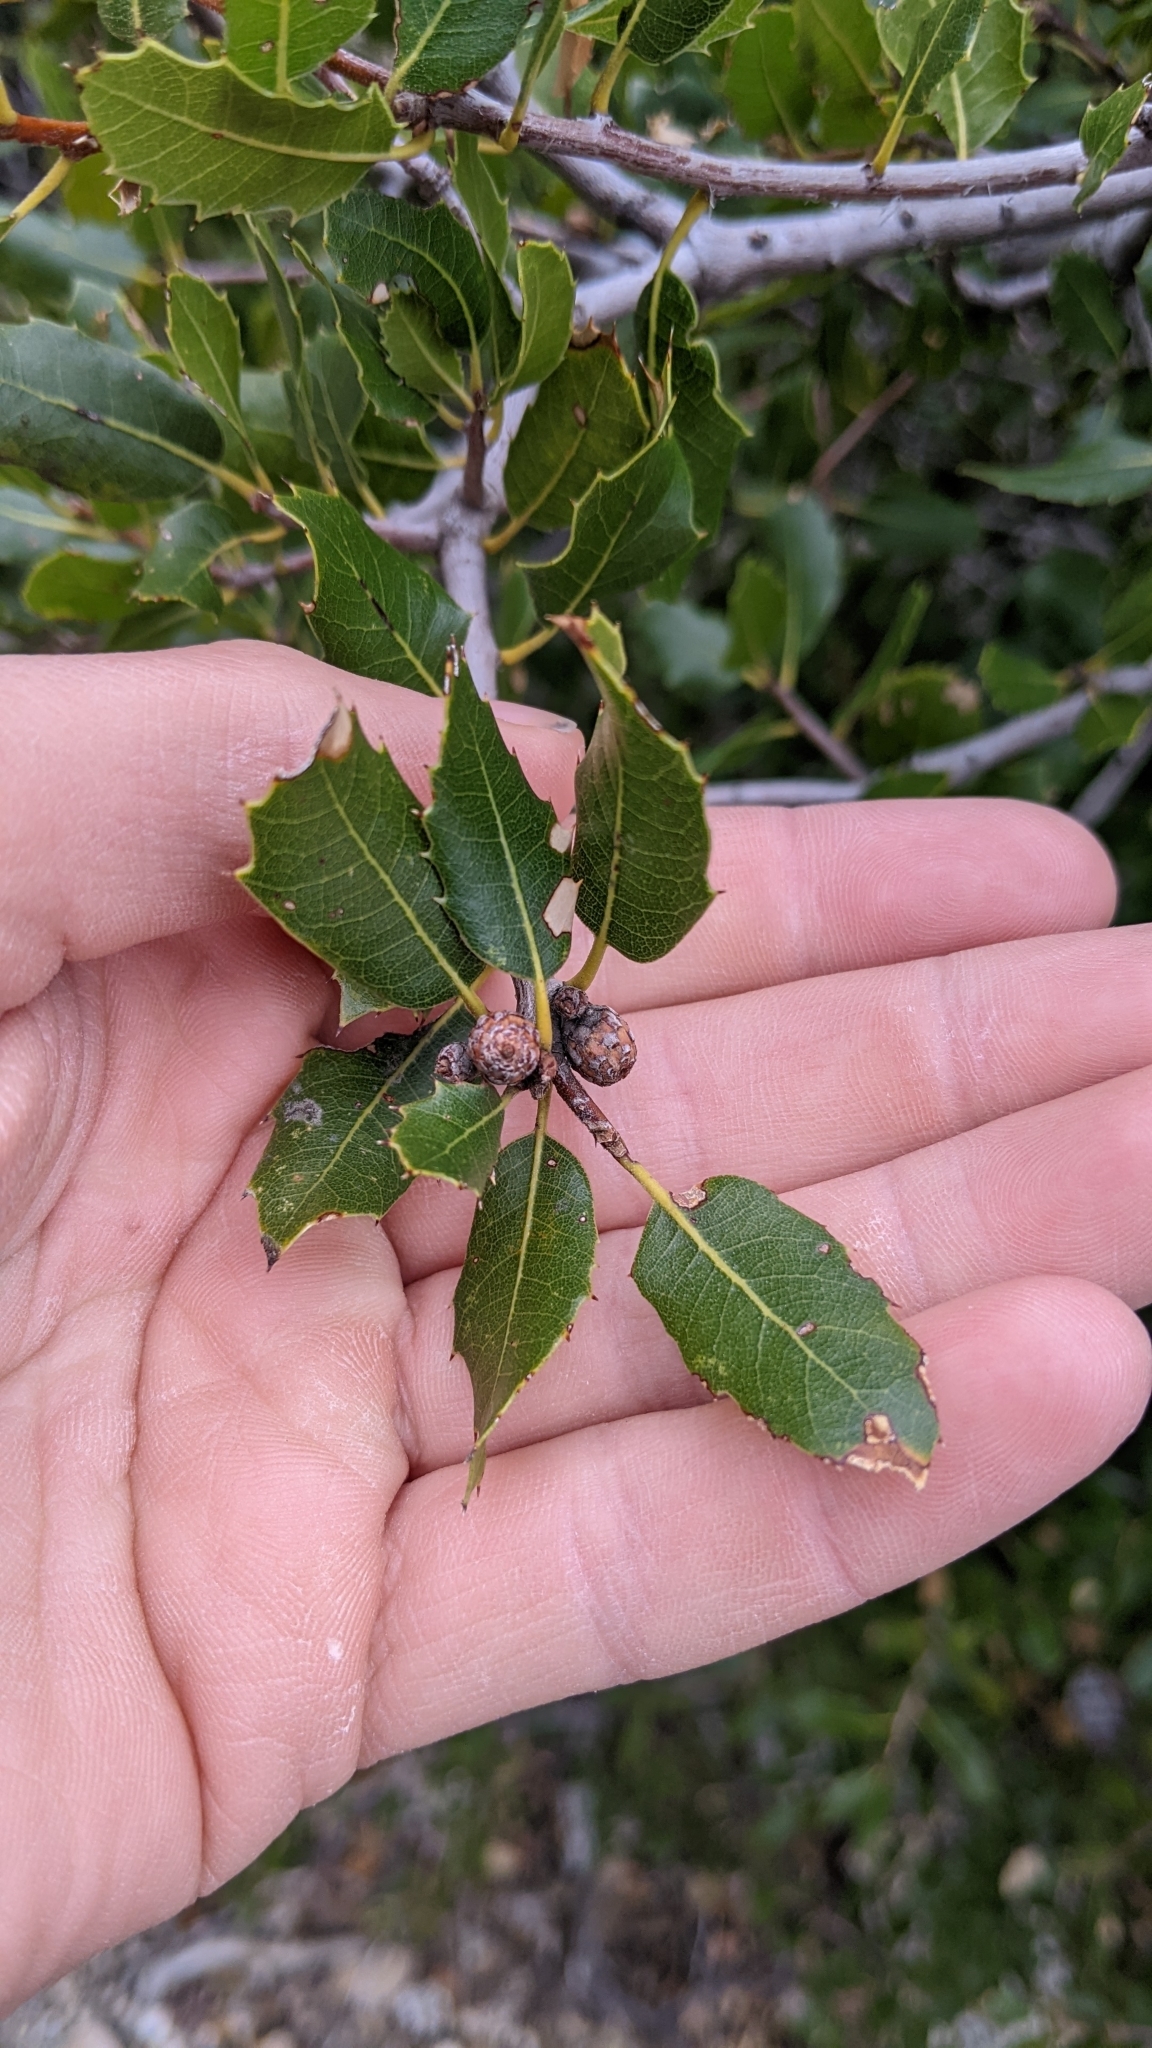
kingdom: Plantae
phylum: Tracheophyta
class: Magnoliopsida
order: Fagales
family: Fagaceae
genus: Quercus
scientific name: Quercus wislizeni
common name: Interior live oak
